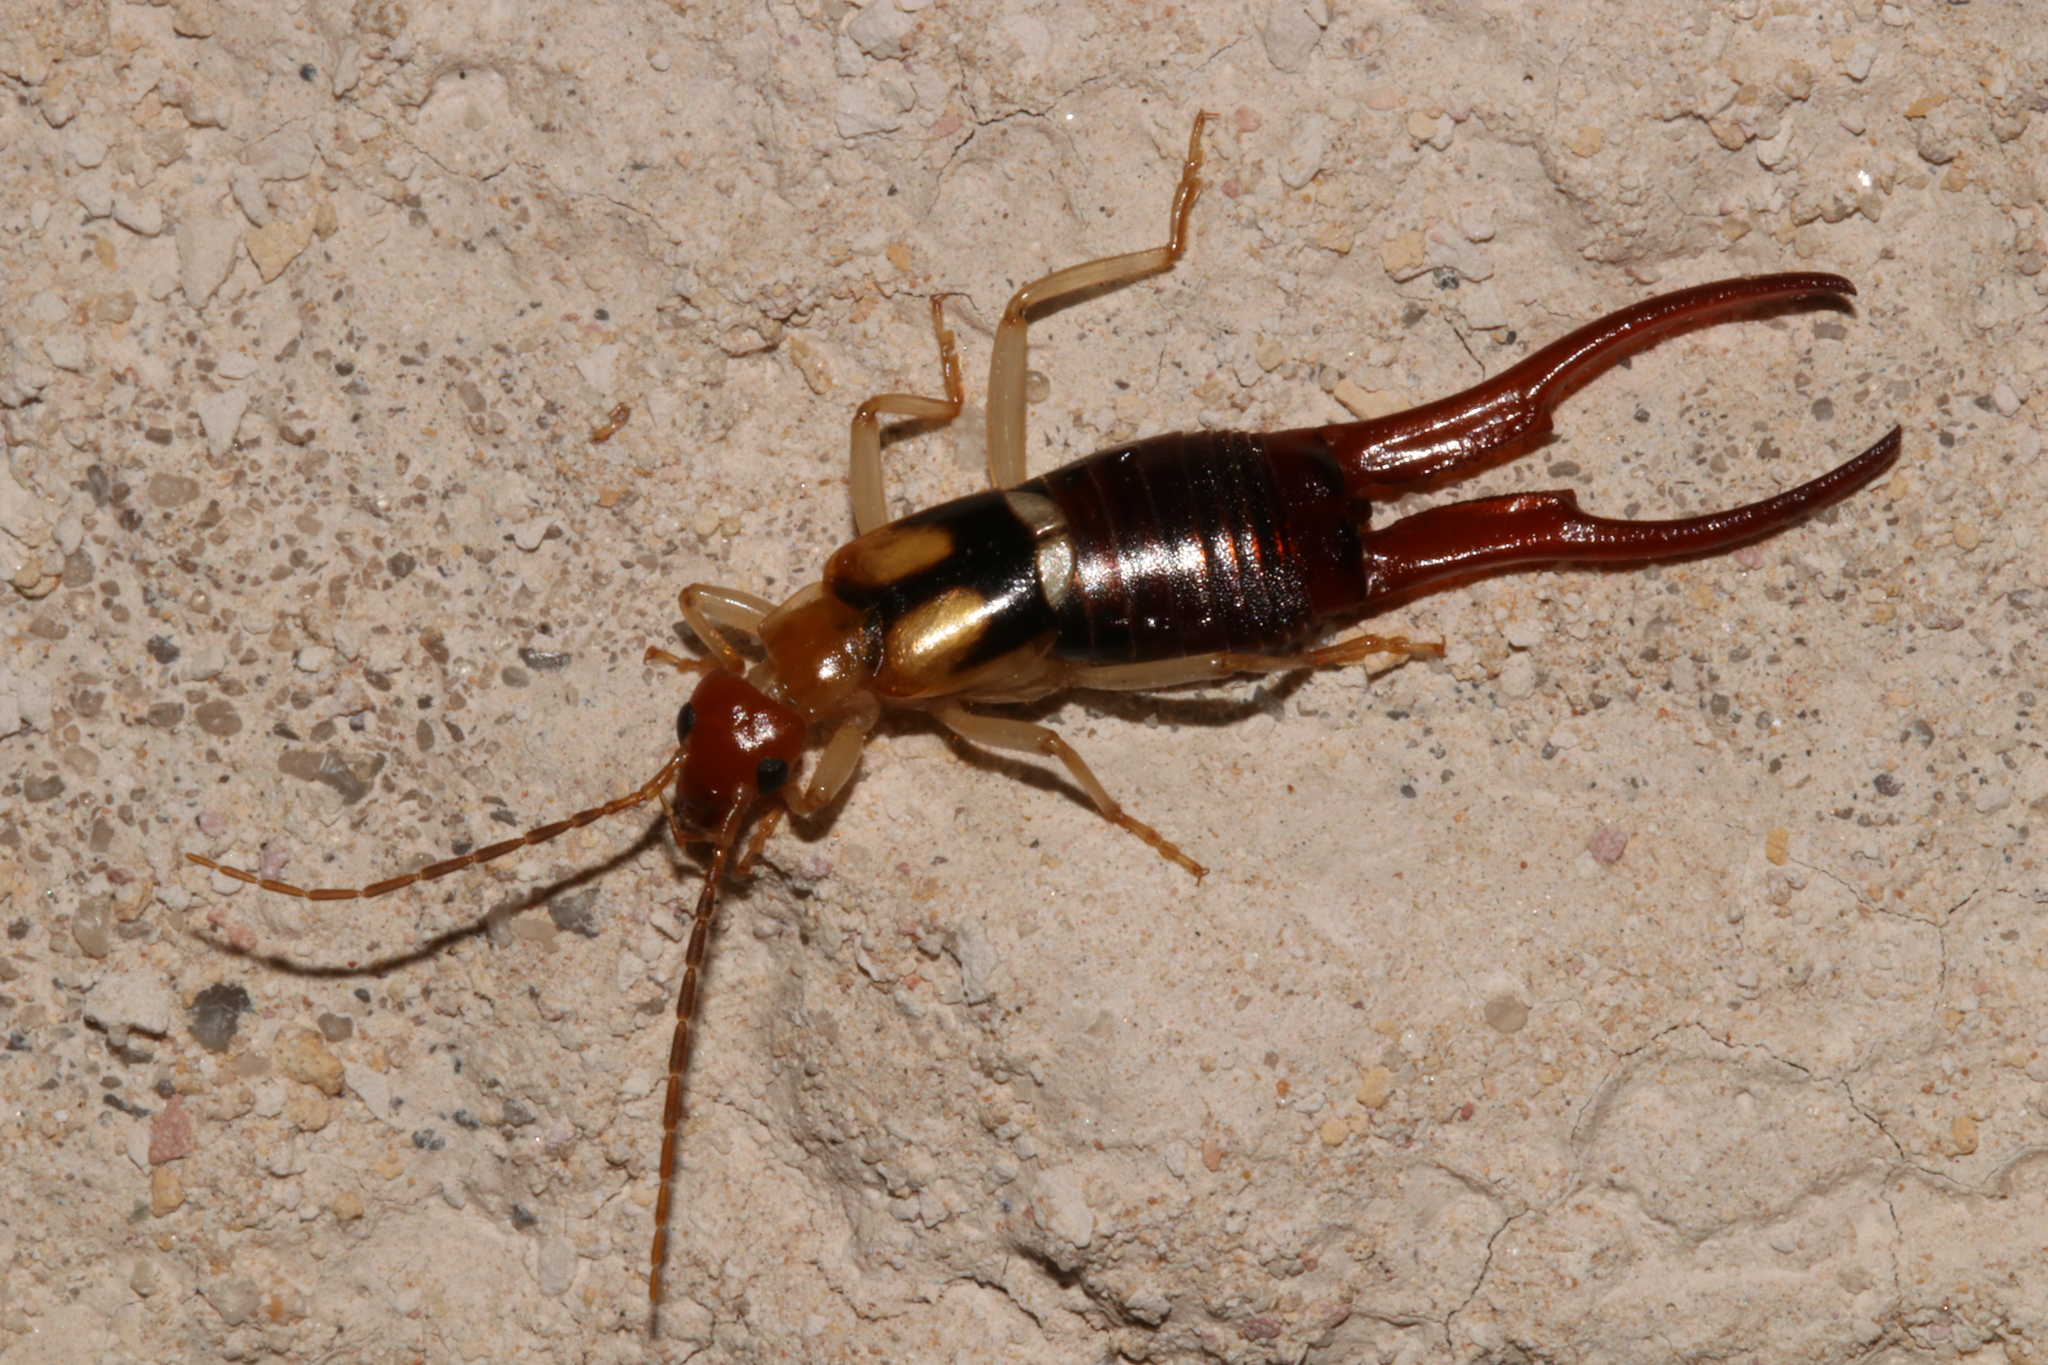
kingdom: Animalia
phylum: Arthropoda
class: Insecta
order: Dermaptera
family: Forficulidae
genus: Forficula
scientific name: Forficula lucasi
